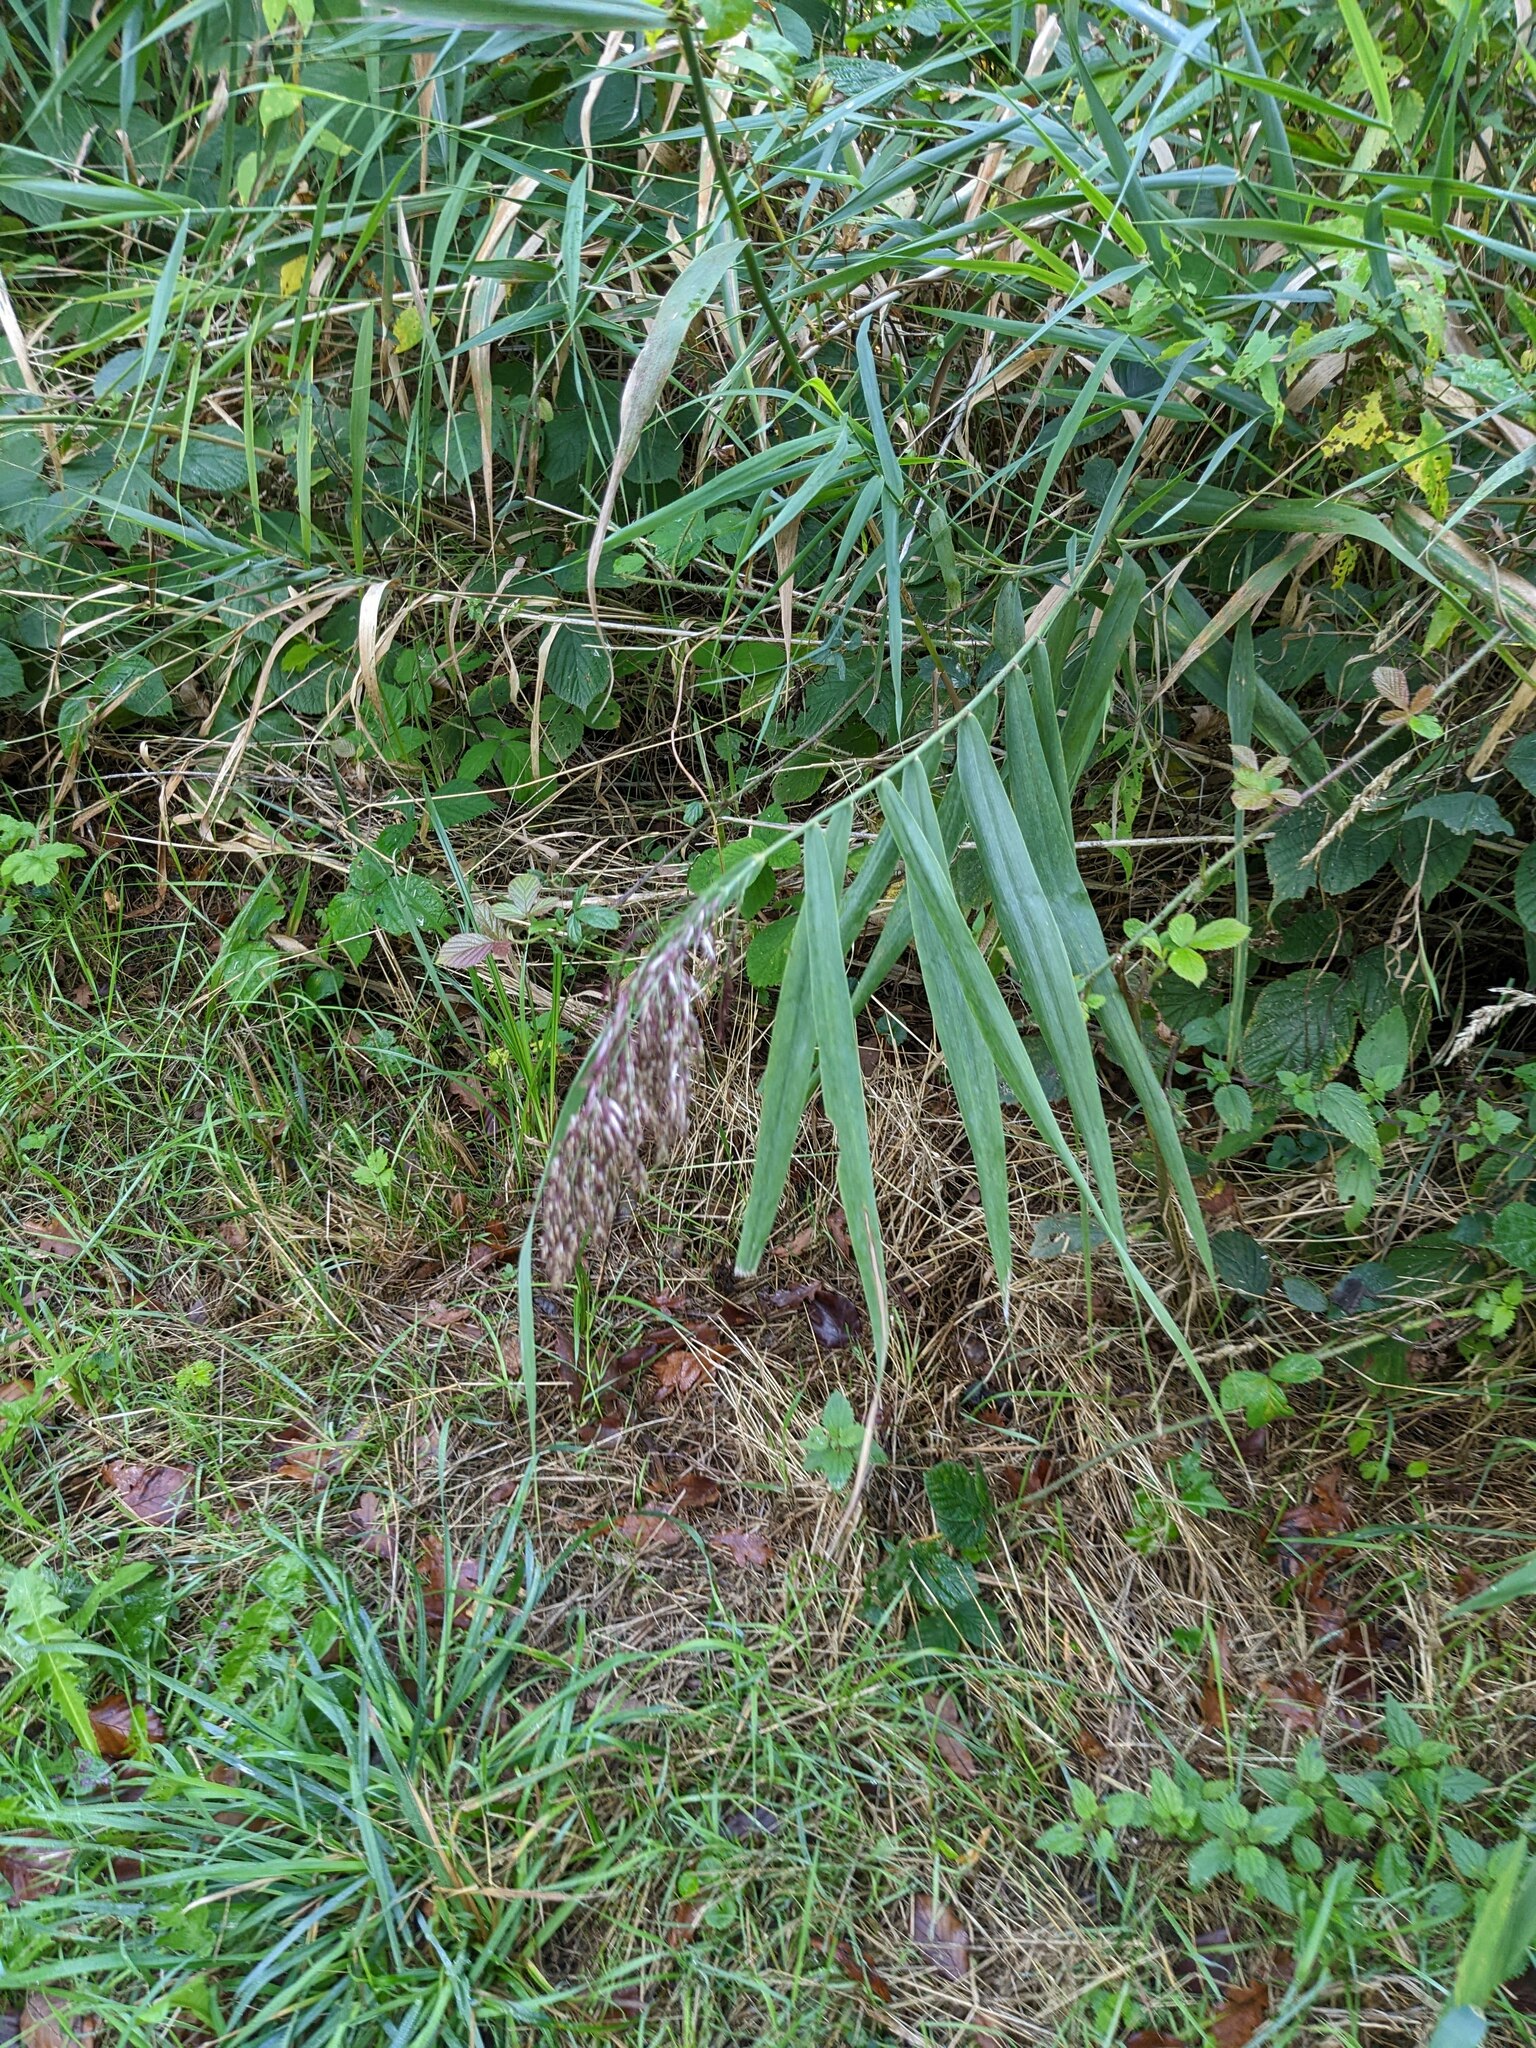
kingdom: Plantae
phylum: Tracheophyta
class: Liliopsida
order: Poales
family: Poaceae
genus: Phragmites
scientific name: Phragmites australis
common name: Common reed
